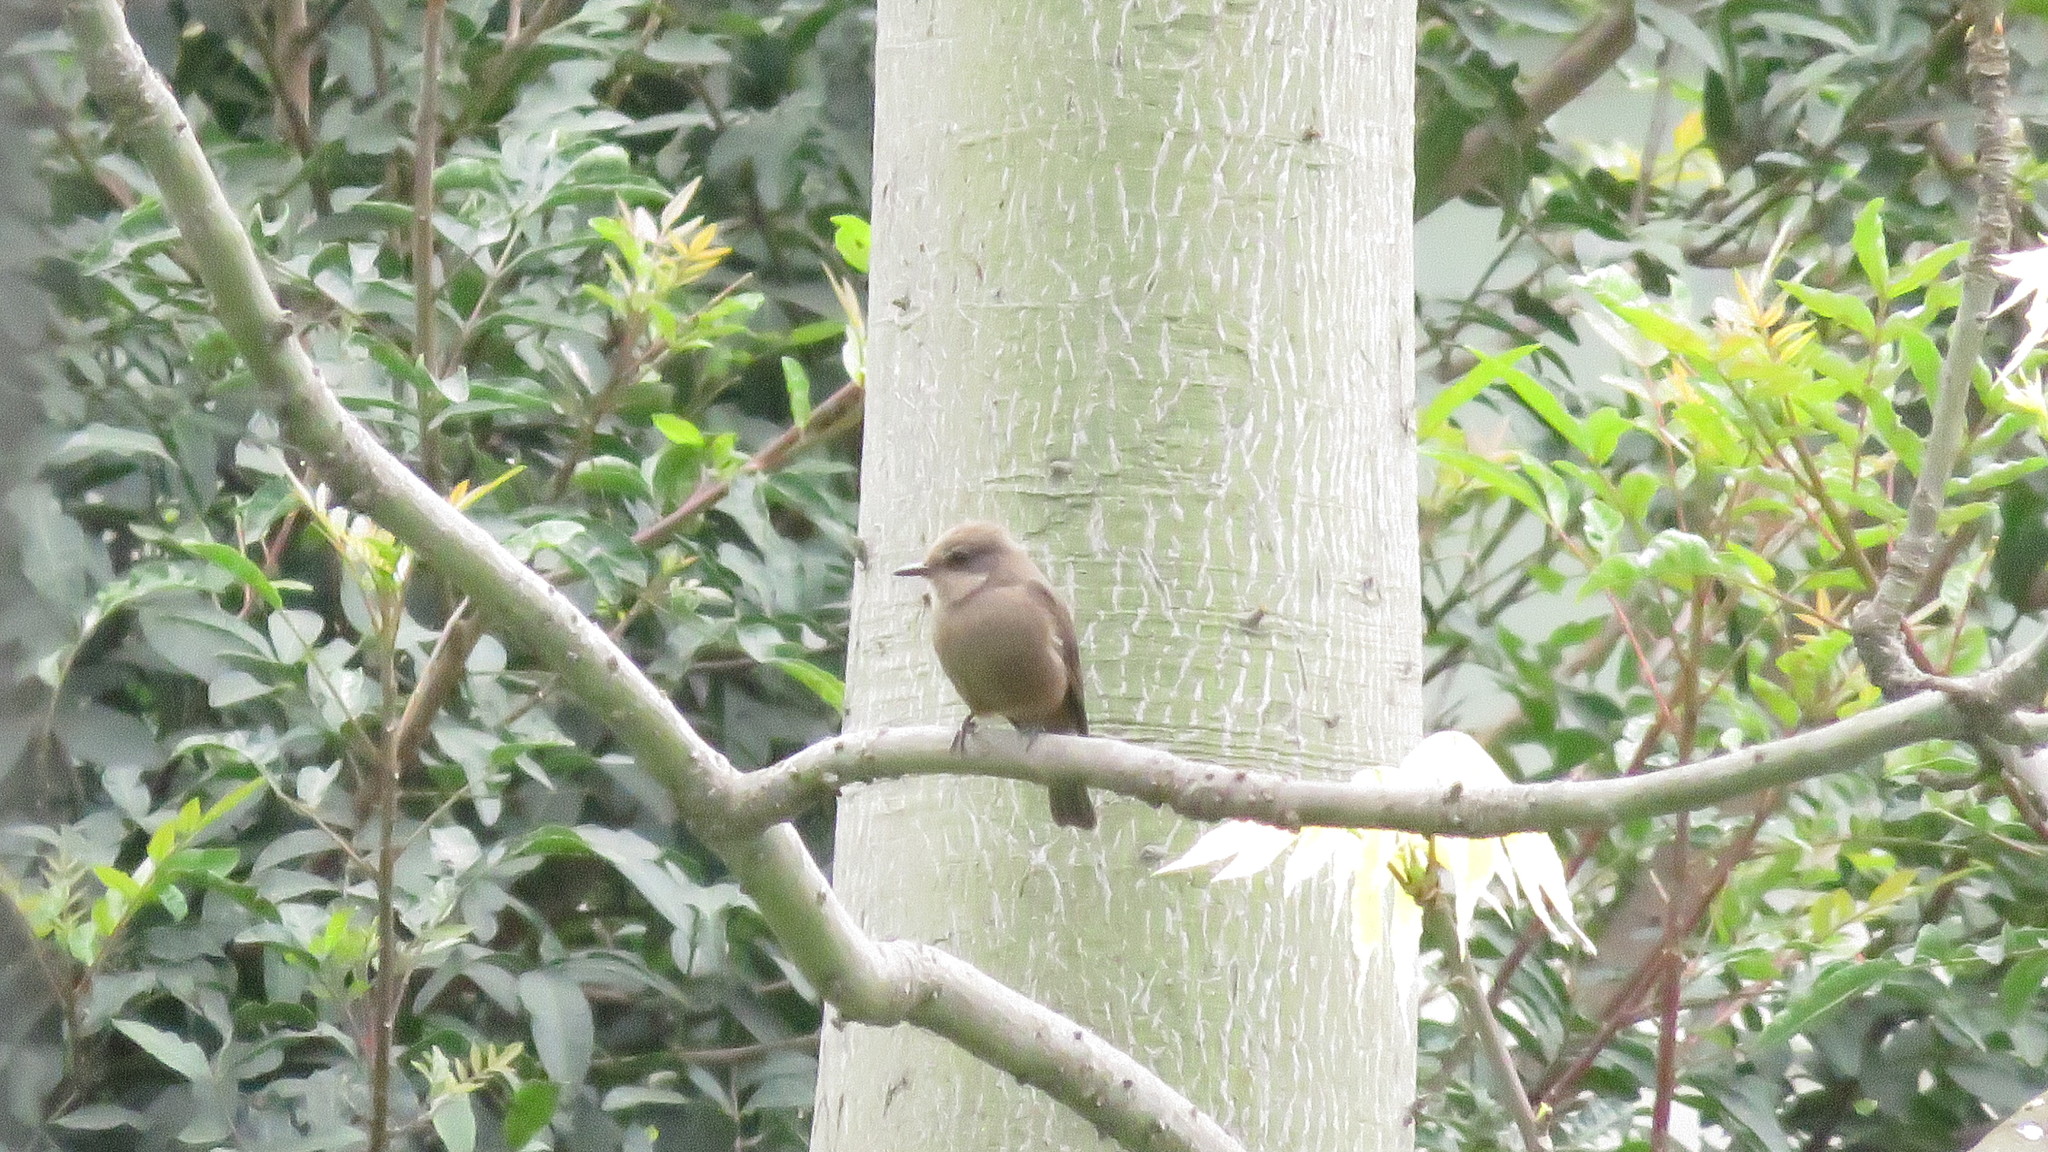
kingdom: Animalia
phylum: Chordata
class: Aves
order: Passeriformes
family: Tyrannidae
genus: Pyrocephalus
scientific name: Pyrocephalus rubinus
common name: Vermilion flycatcher
